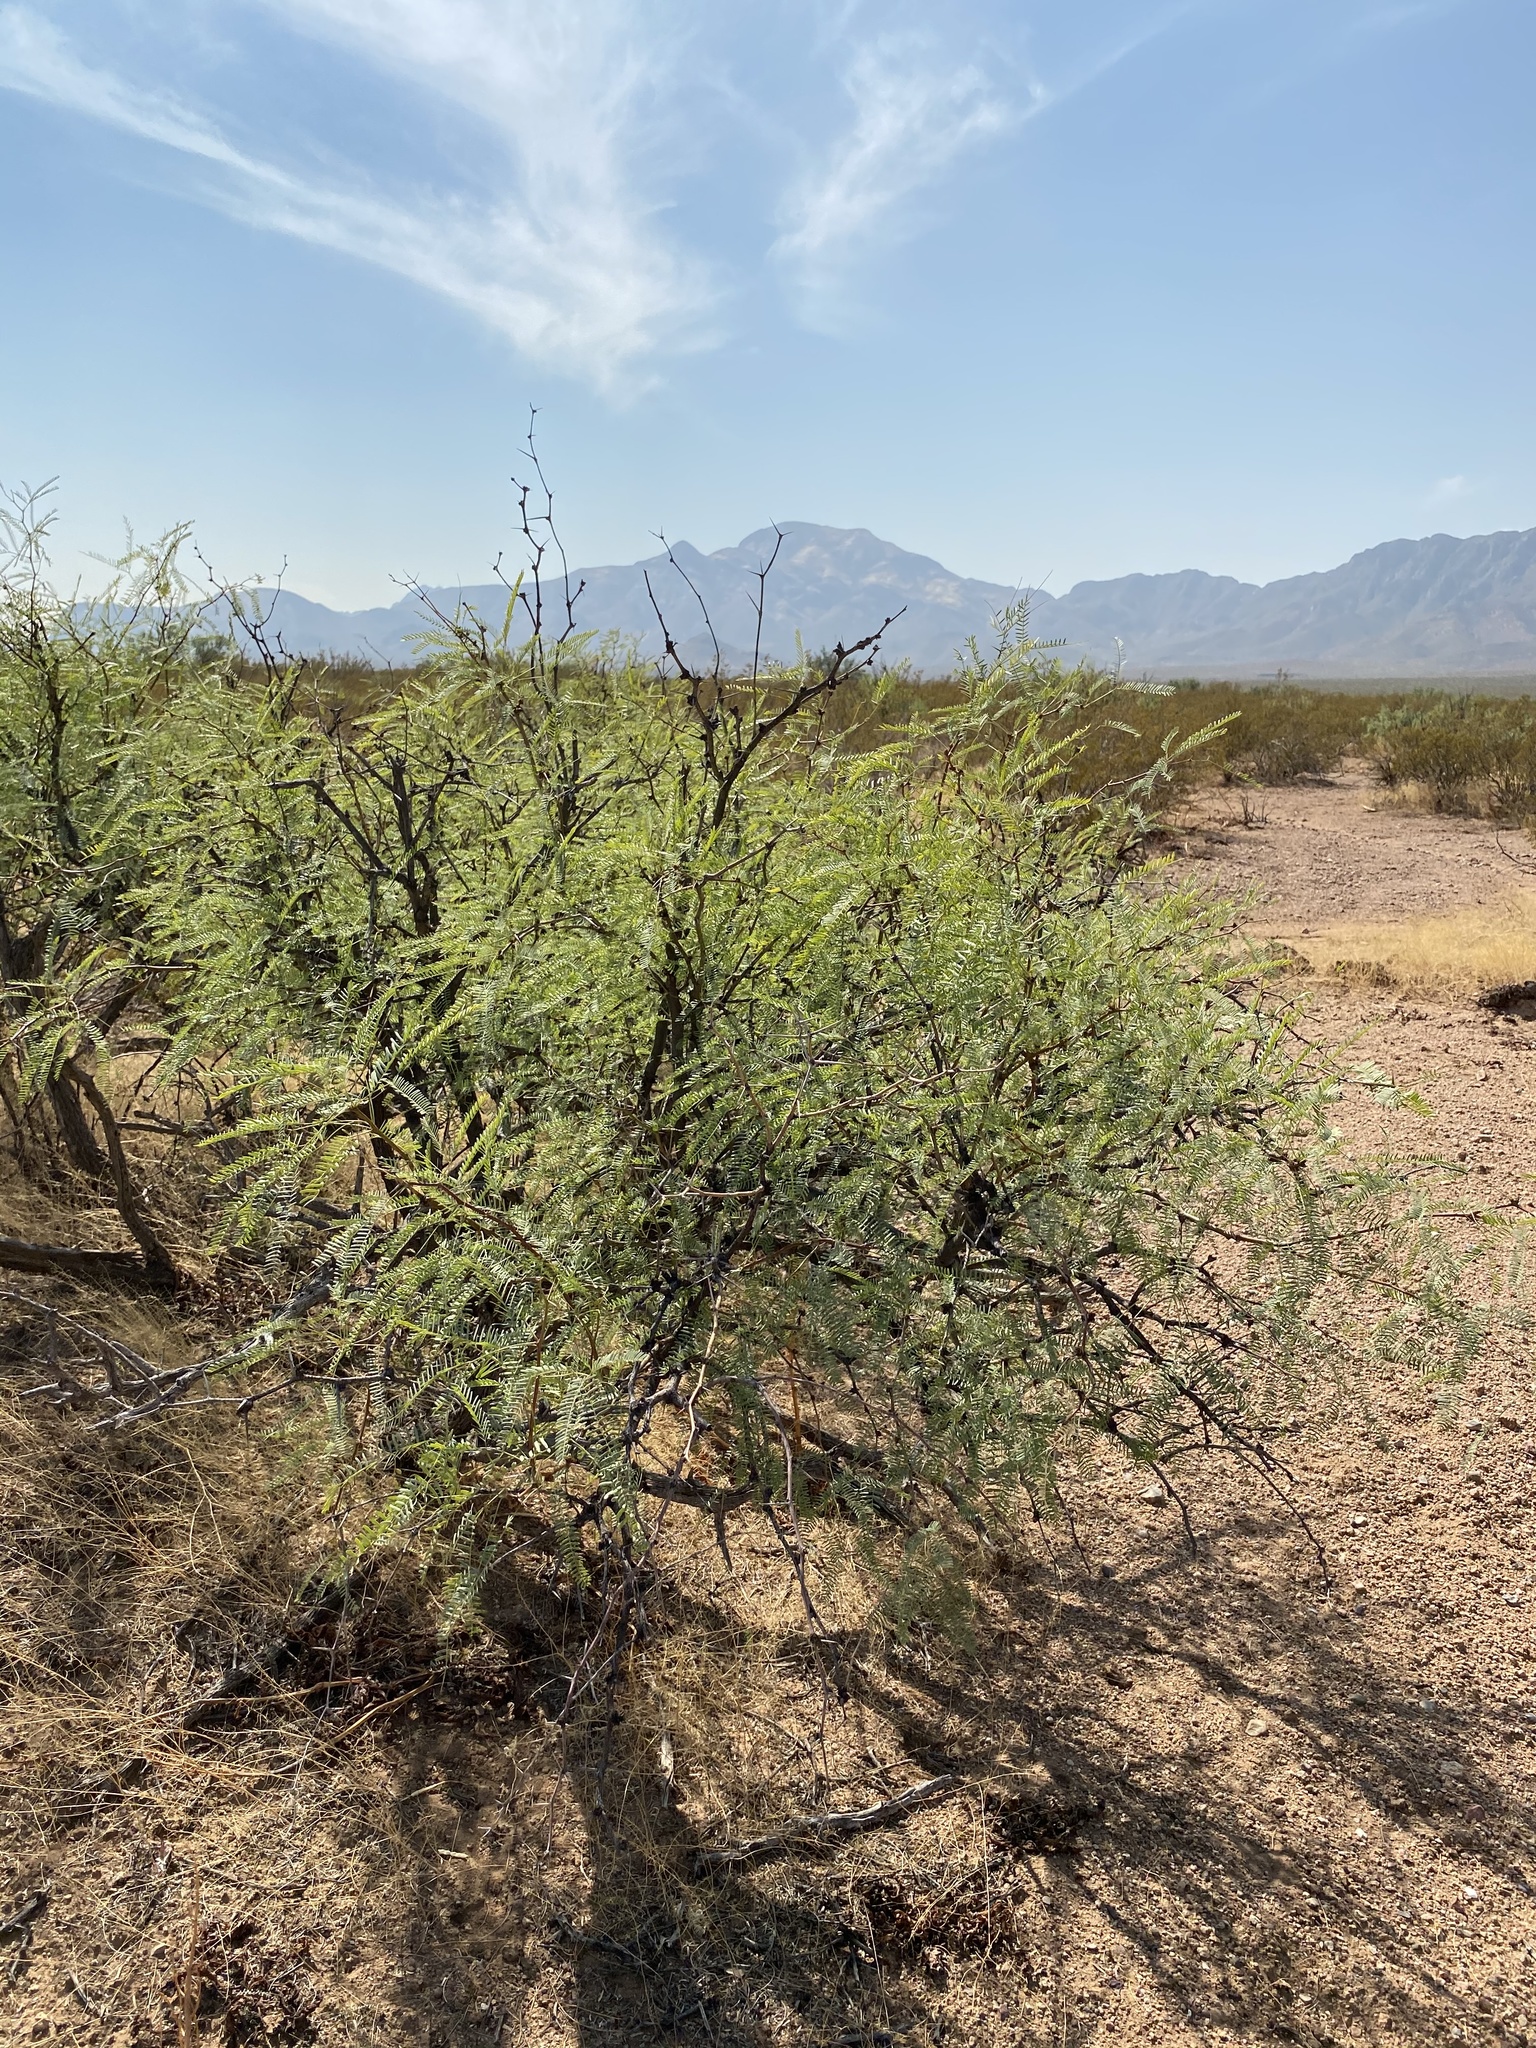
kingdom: Plantae
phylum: Tracheophyta
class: Magnoliopsida
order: Fabales
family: Fabaceae
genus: Prosopis
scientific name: Prosopis glandulosa
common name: Honey mesquite
